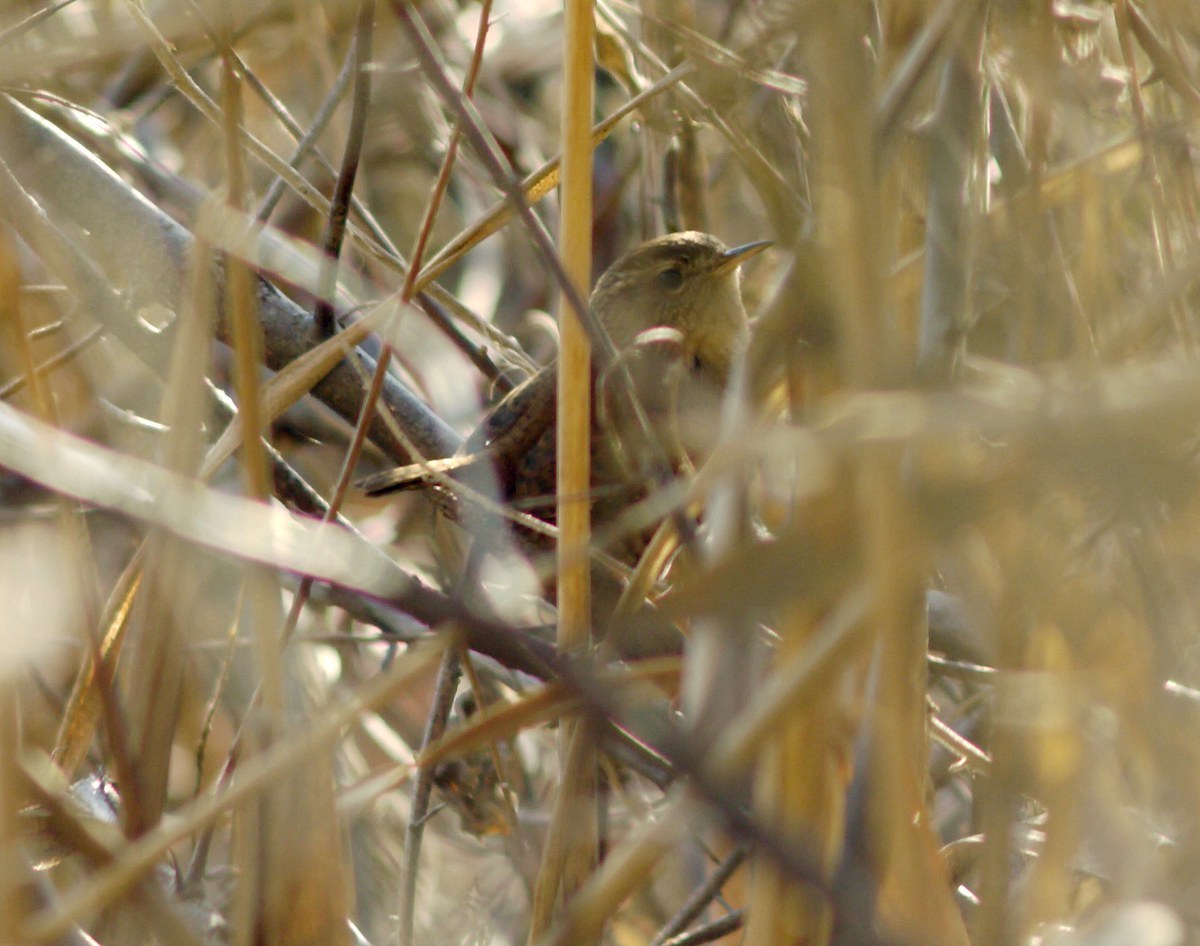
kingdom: Animalia
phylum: Chordata
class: Aves
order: Passeriformes
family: Troglodytidae
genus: Troglodytes
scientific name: Troglodytes troglodytes
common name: Eurasian wren
